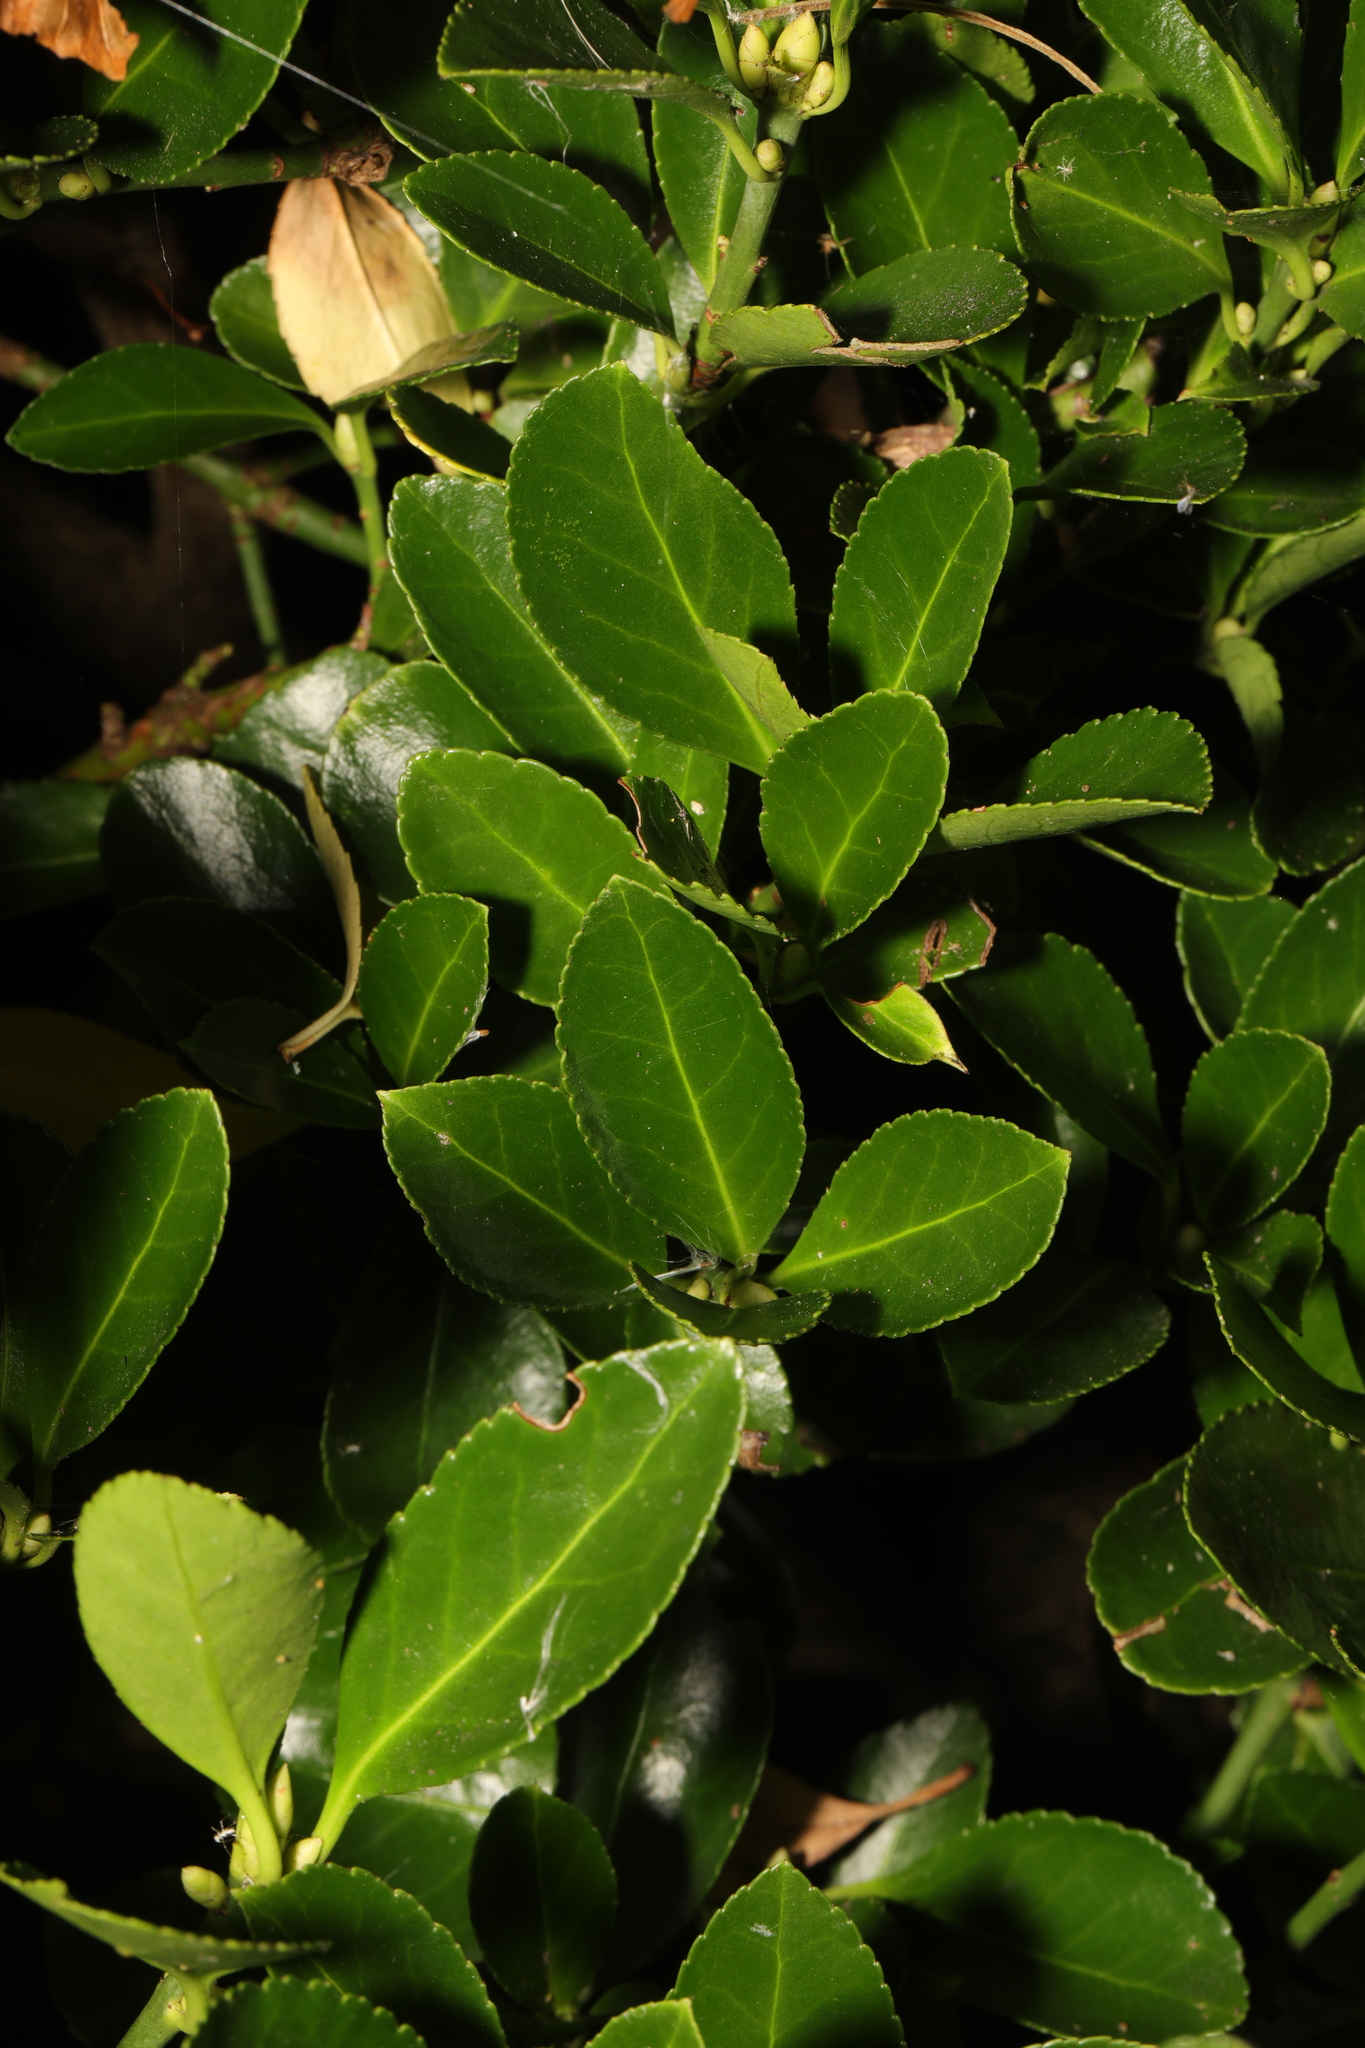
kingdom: Plantae
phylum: Tracheophyta
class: Magnoliopsida
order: Celastrales
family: Celastraceae
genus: Euonymus
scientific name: Euonymus japonicus
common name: Japanese spindletree
